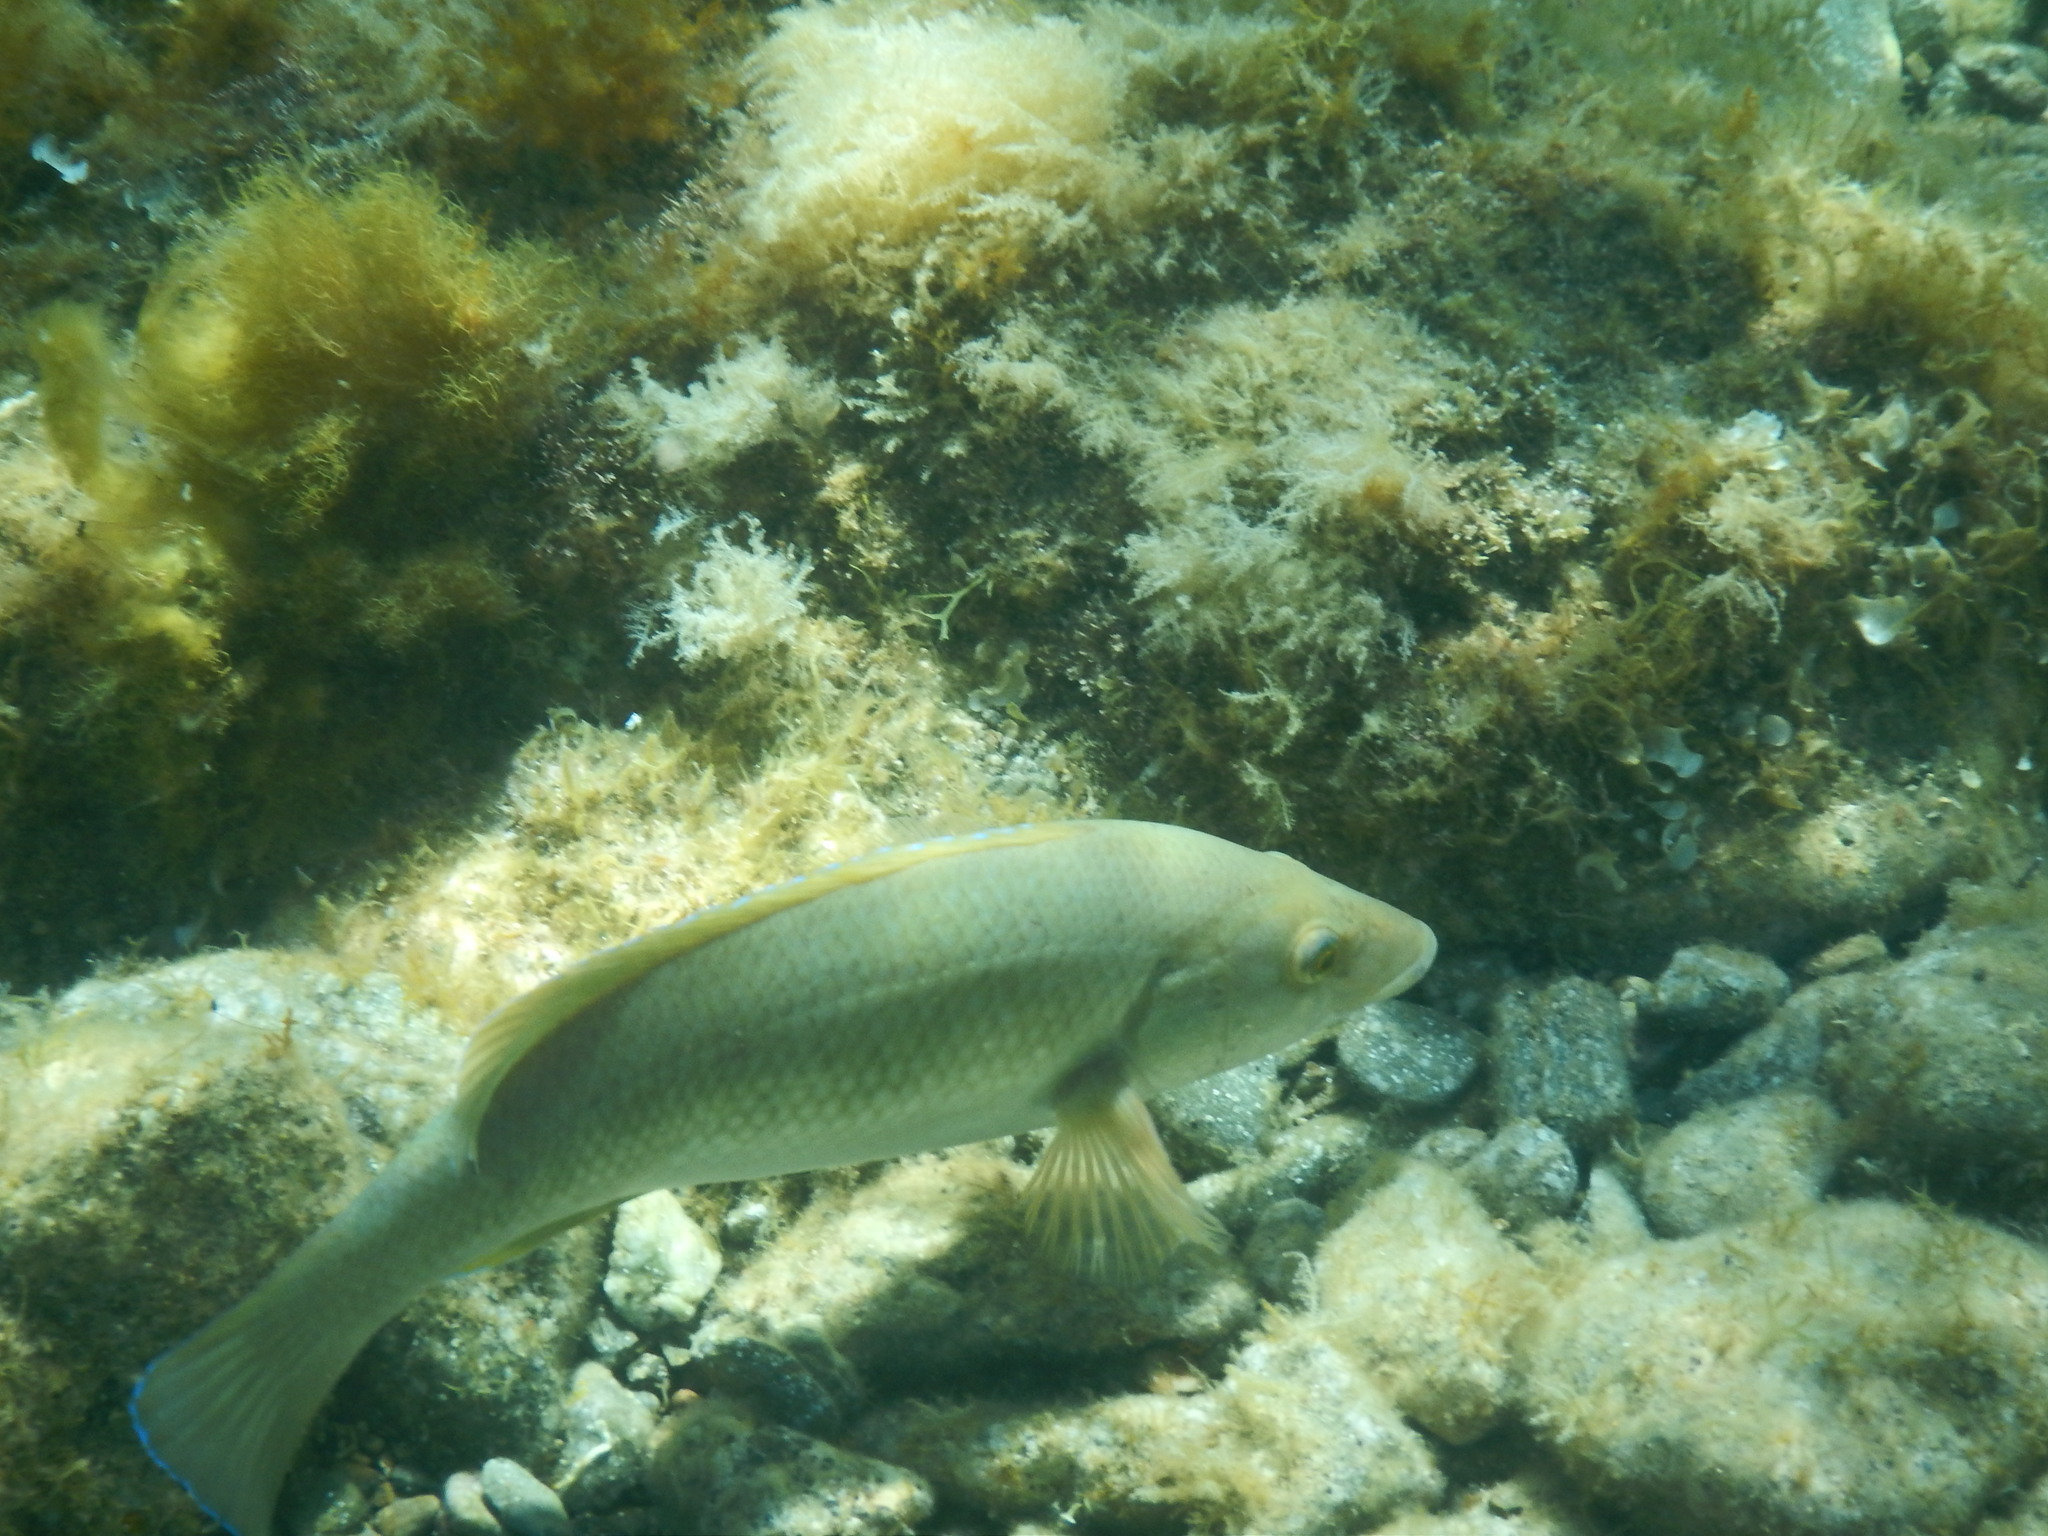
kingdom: Animalia
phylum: Chordata
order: Perciformes
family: Labridae
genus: Labrus
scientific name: Labrus merula
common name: Brown wrasse
